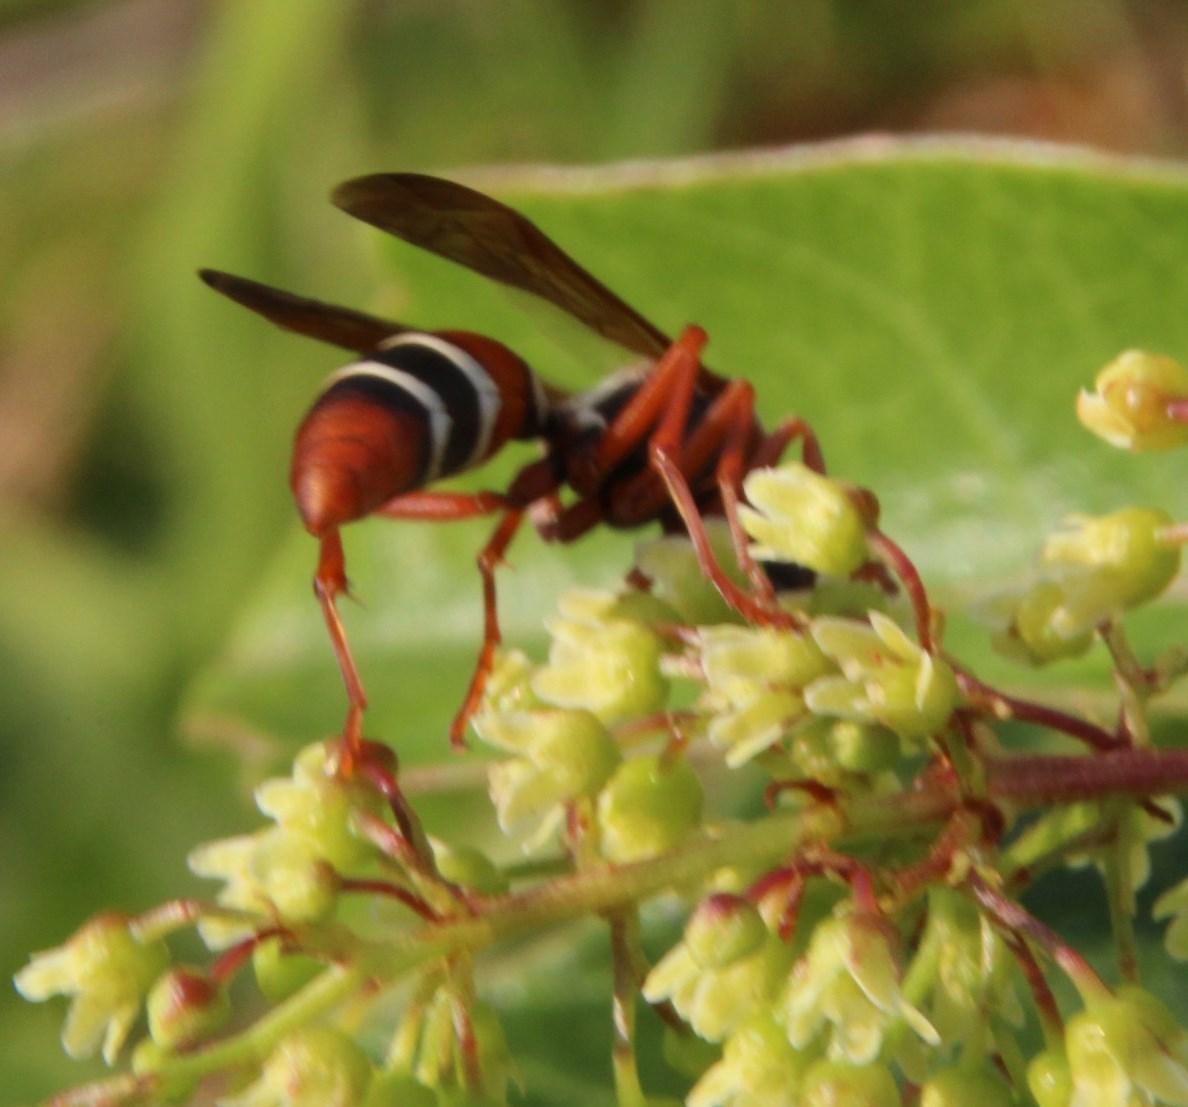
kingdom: Animalia
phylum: Arthropoda
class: Insecta
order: Hymenoptera
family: Eumenidae
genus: Polistes
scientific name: Polistes marginalis
